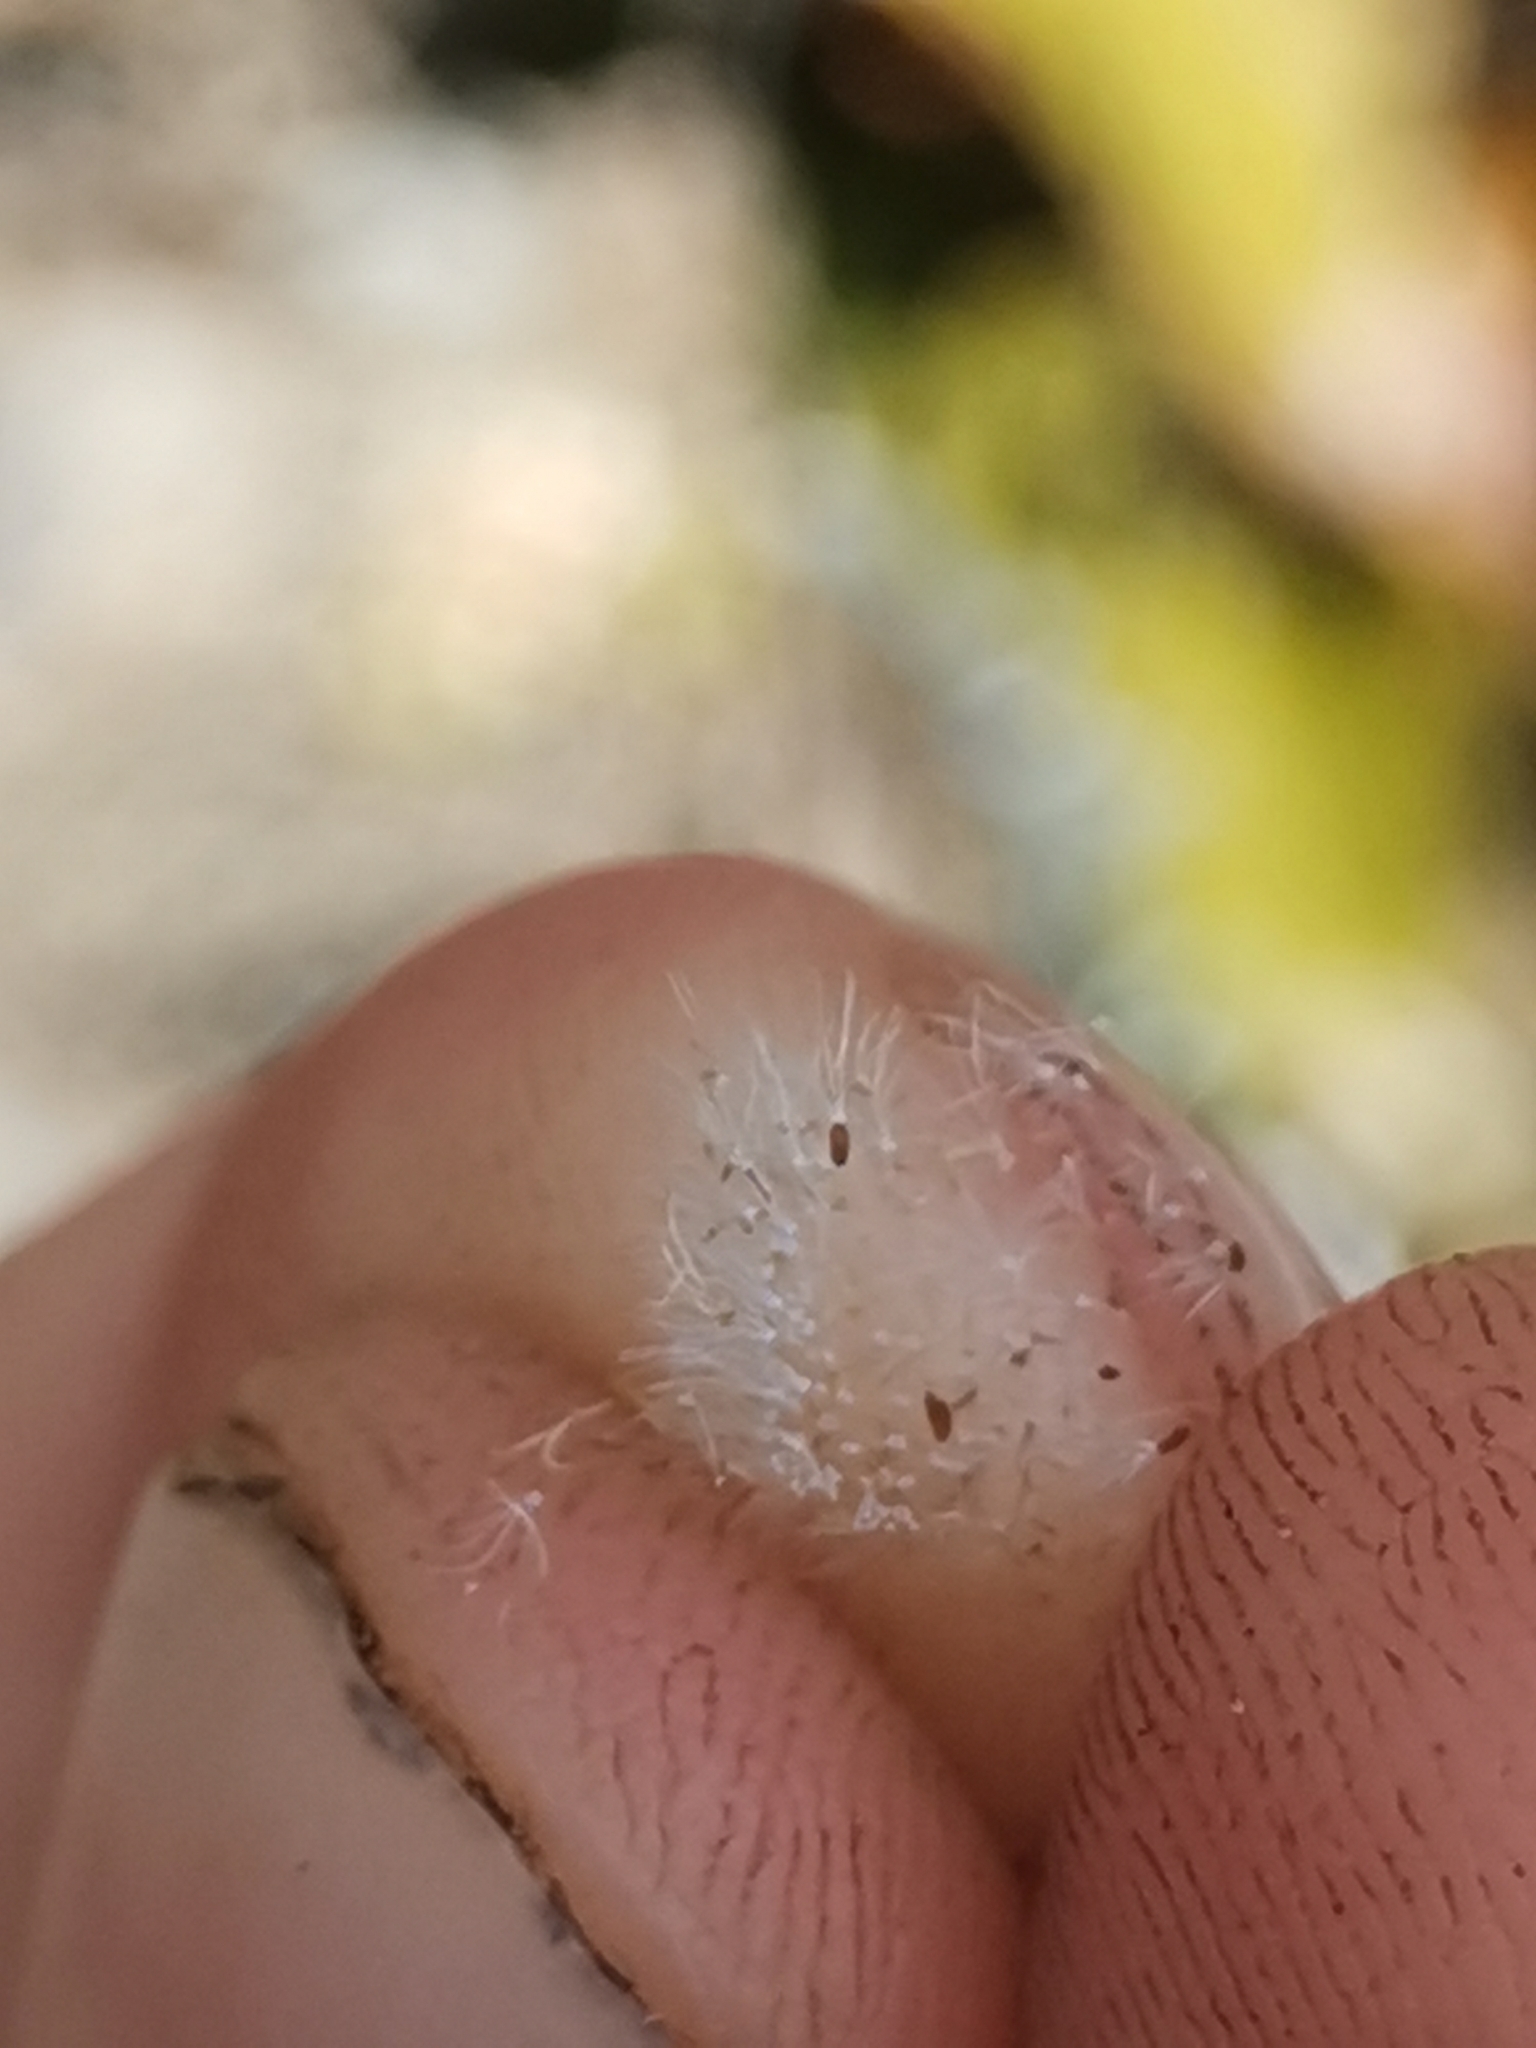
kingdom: Plantae
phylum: Tracheophyta
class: Magnoliopsida
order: Asterales
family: Asteraceae
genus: Helichrysum
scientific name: Helichrysum luteoalbum
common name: Daisy
